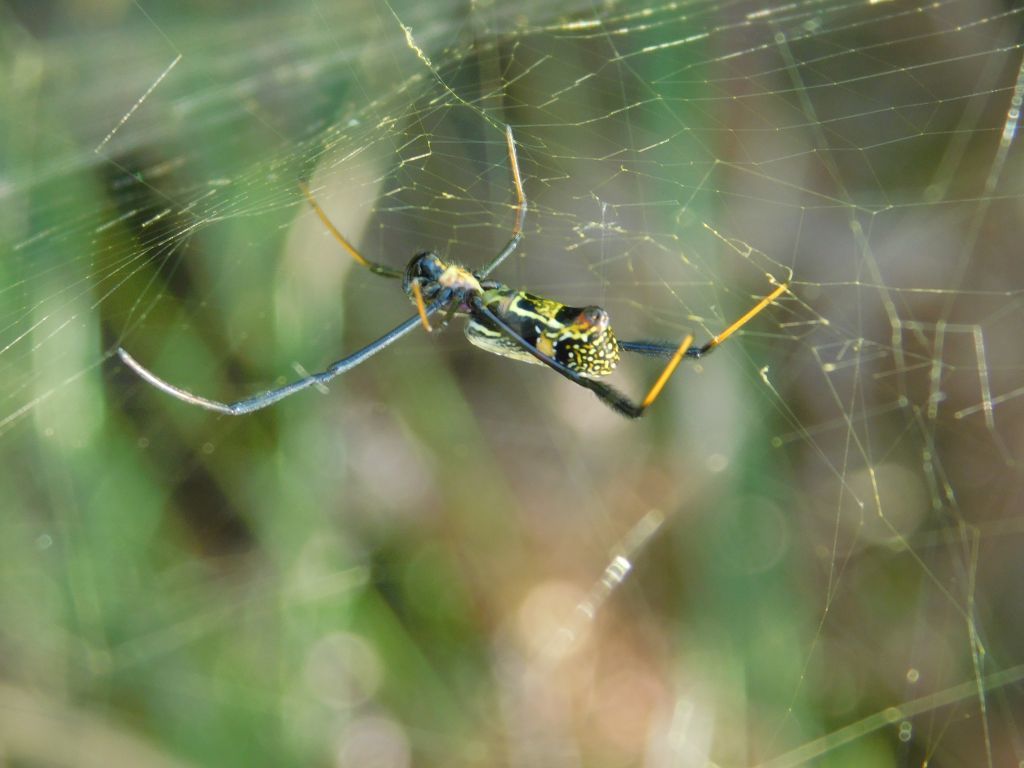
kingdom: Animalia
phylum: Arthropoda
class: Arachnida
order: Araneae
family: Araneidae
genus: Trichonephila
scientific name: Trichonephila fenestrata
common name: Hairy golden orb weaver
